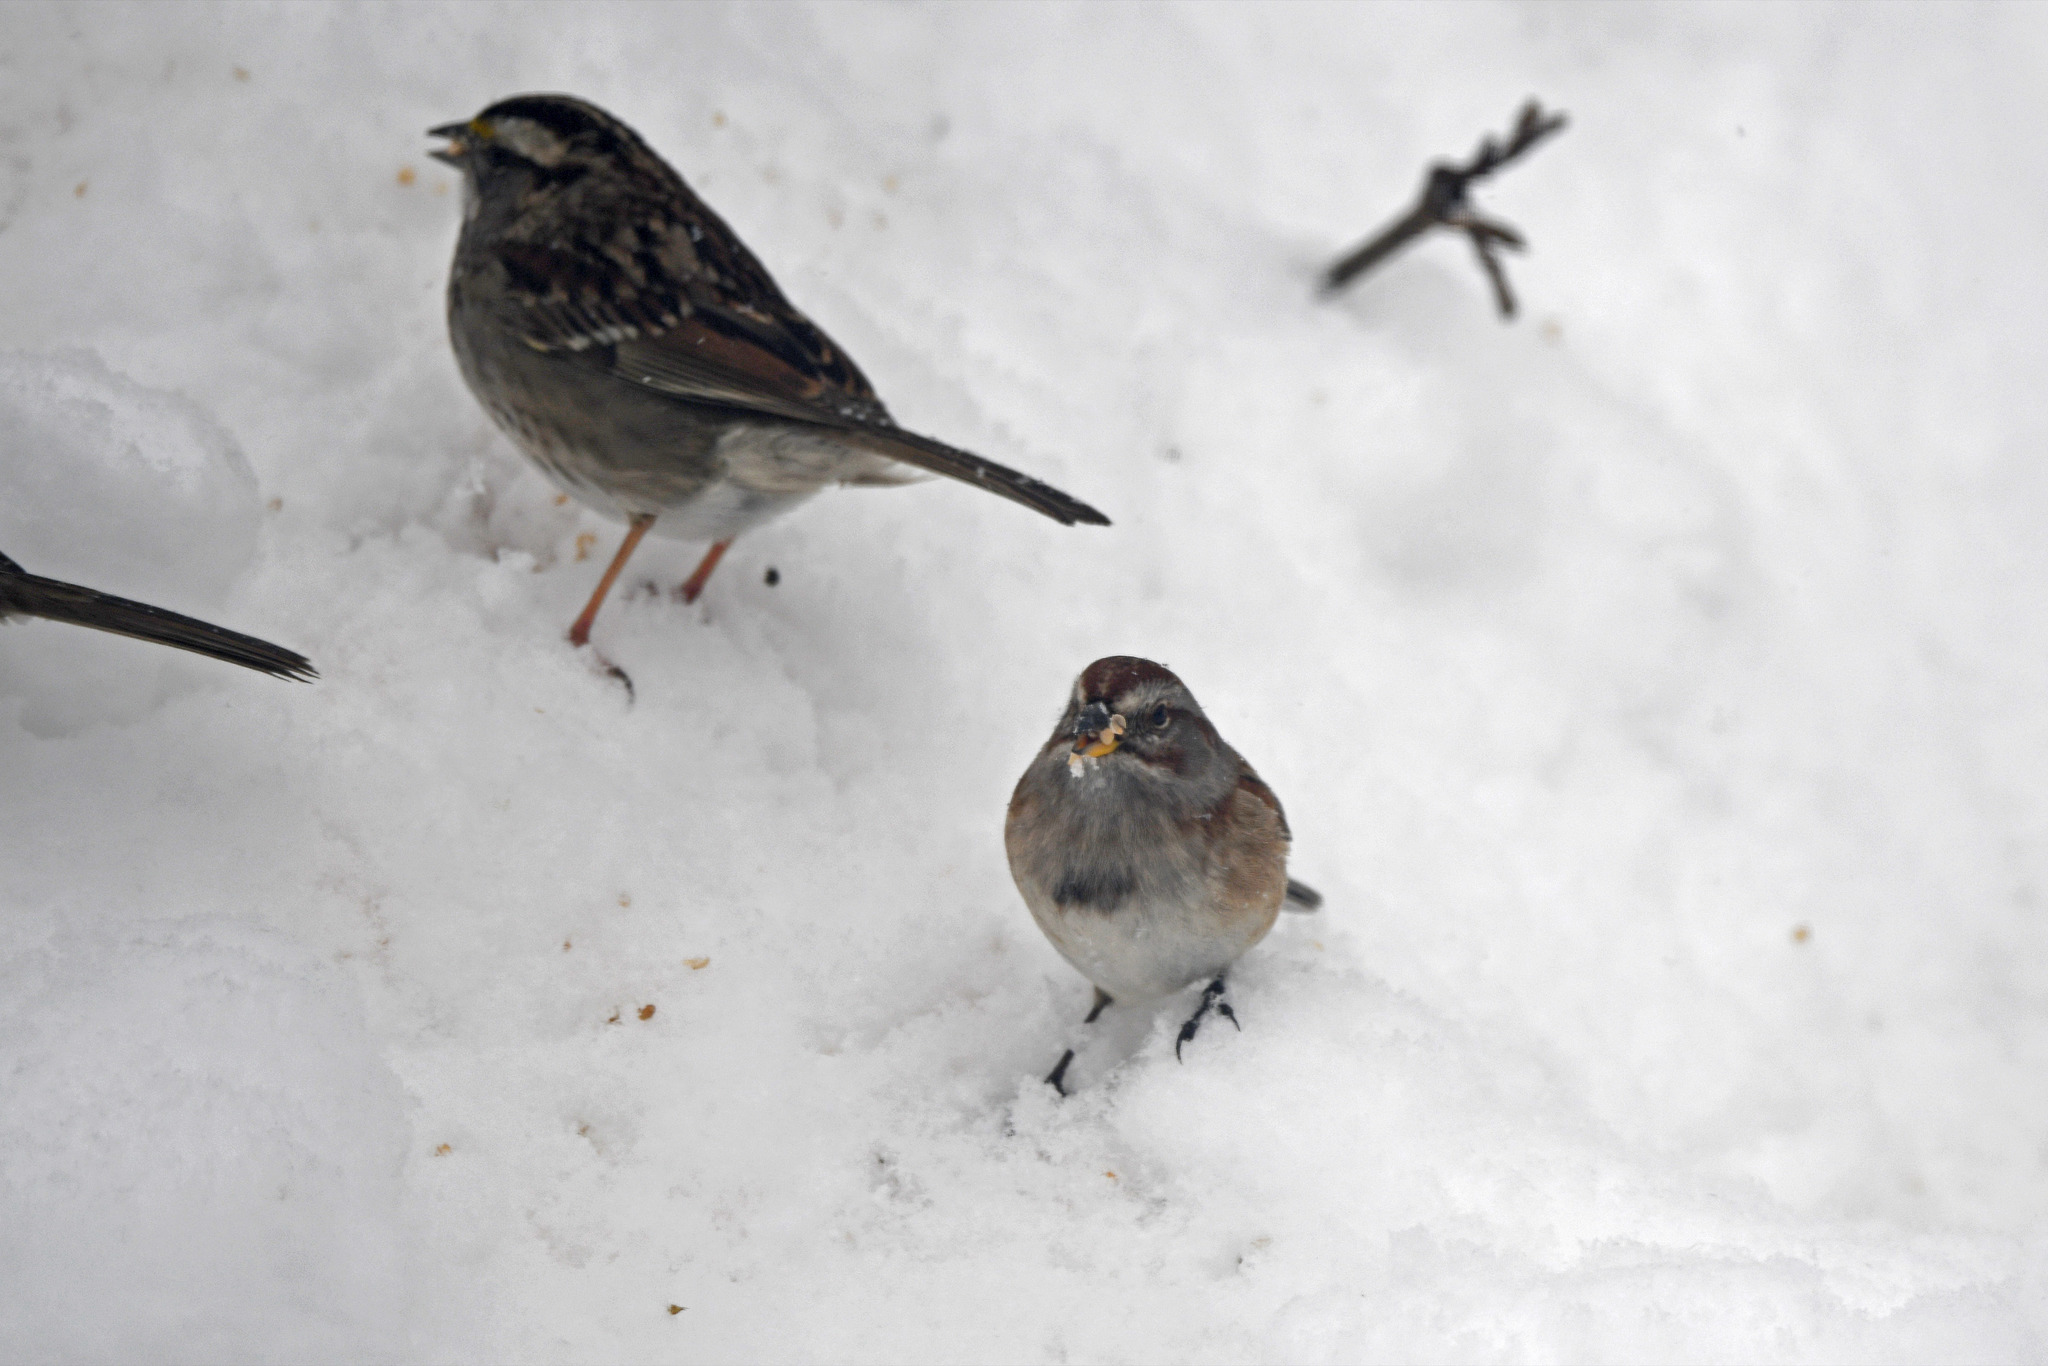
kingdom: Animalia
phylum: Chordata
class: Aves
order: Passeriformes
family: Passerellidae
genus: Spizelloides
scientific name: Spizelloides arborea
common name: American tree sparrow
